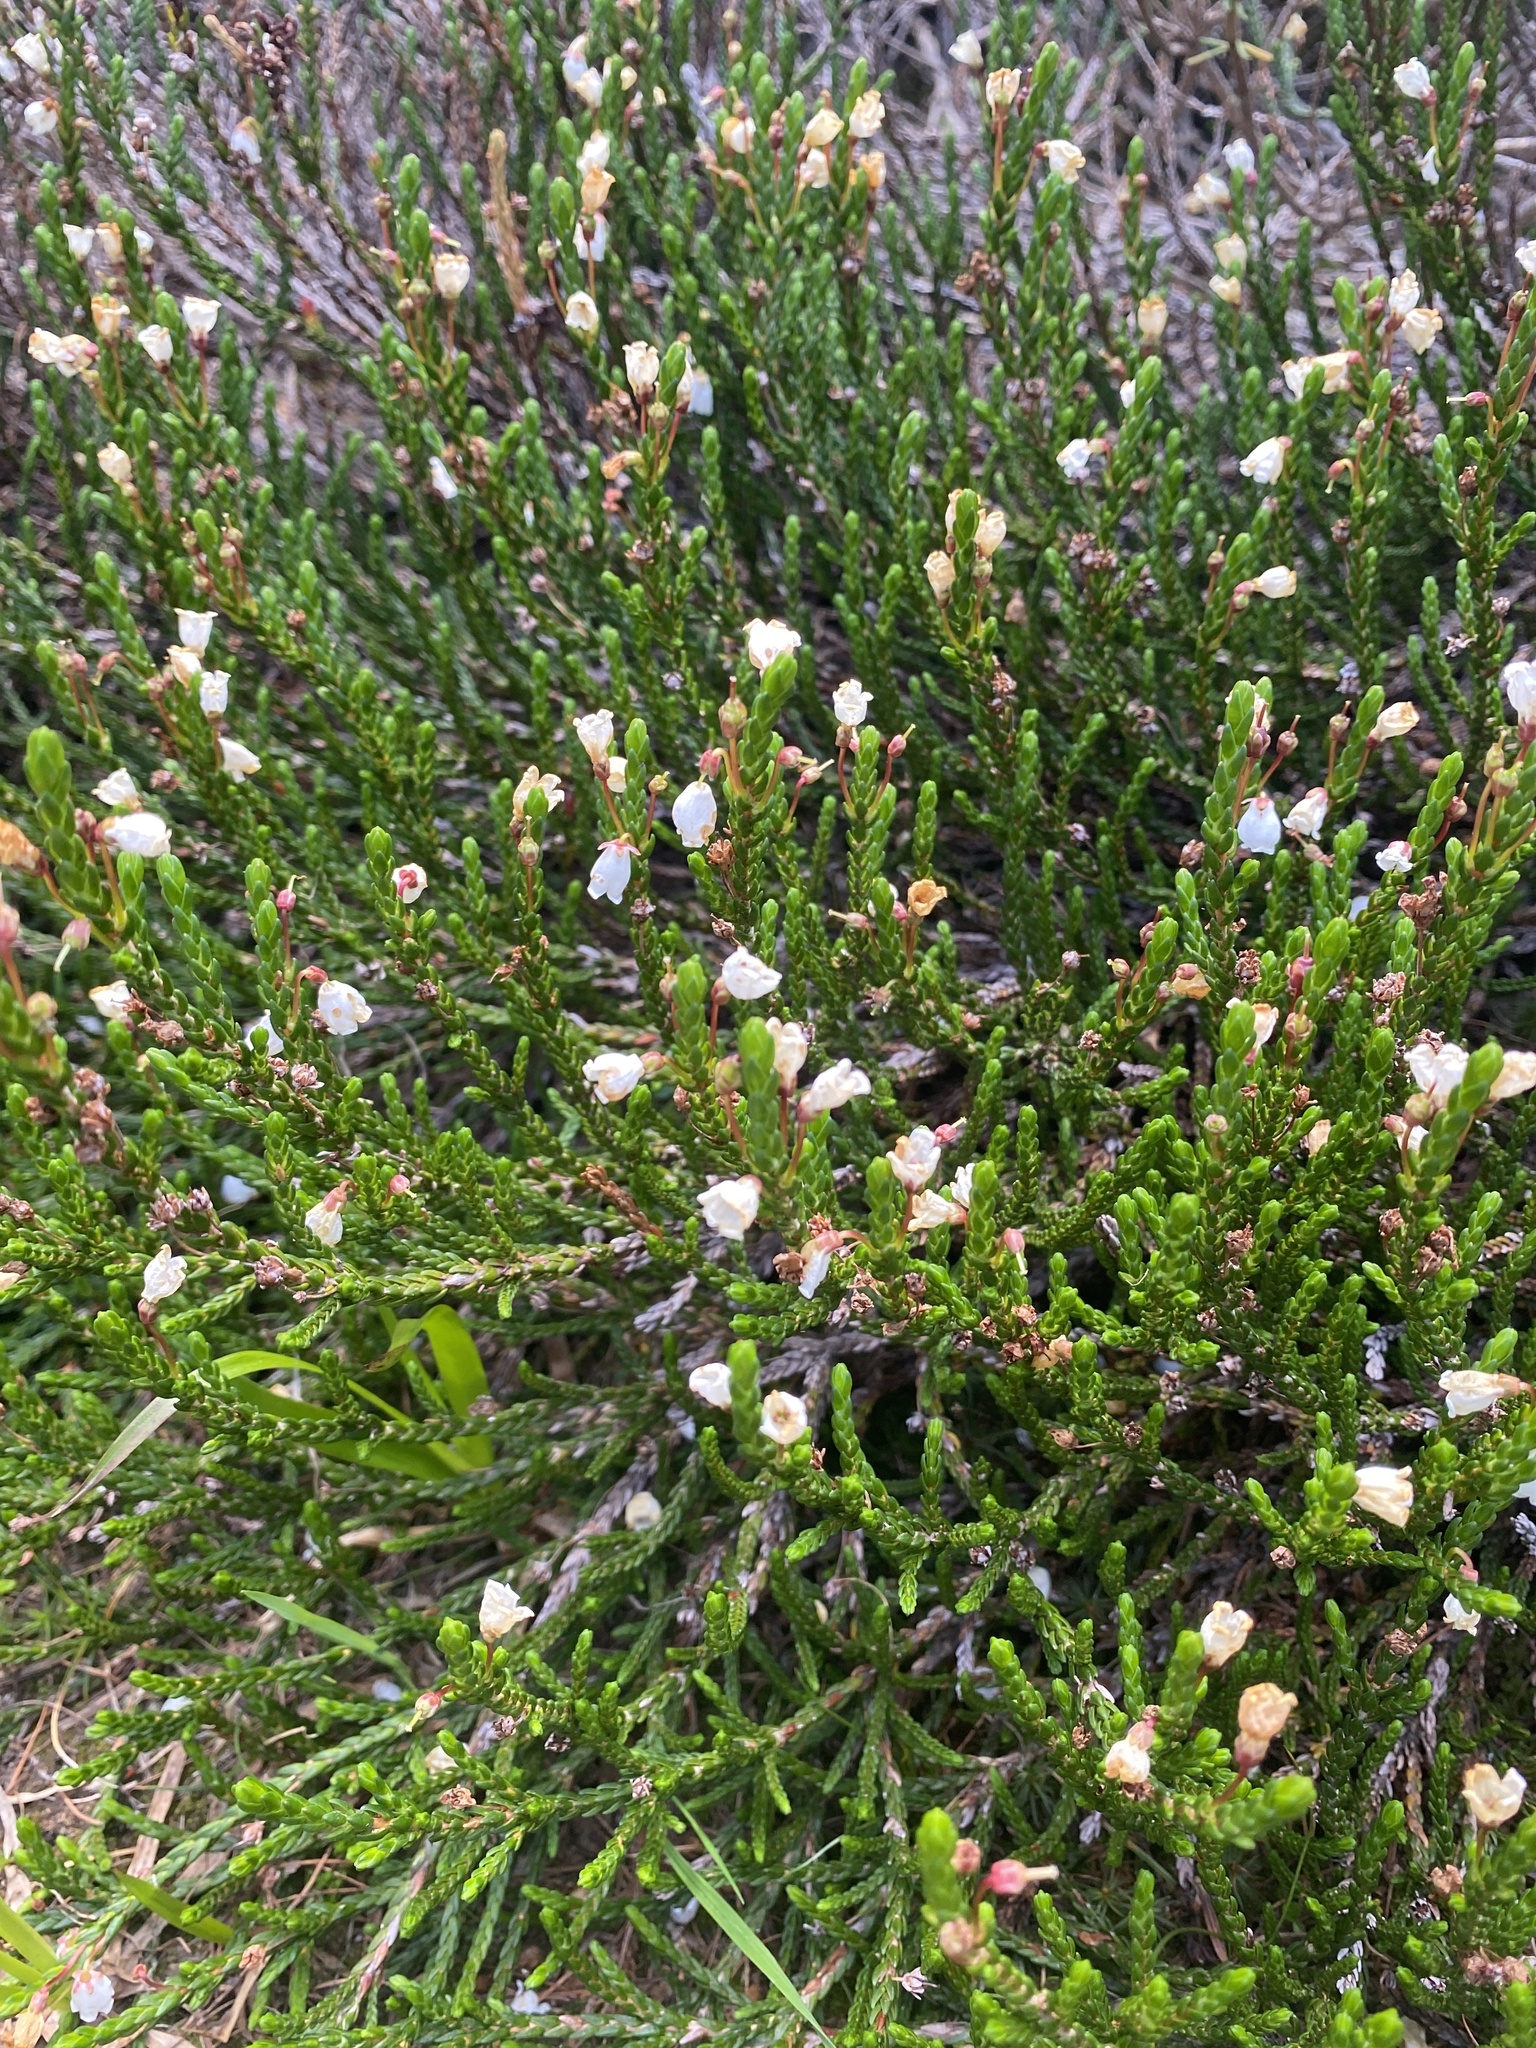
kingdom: Plantae
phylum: Tracheophyta
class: Magnoliopsida
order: Ericales
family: Ericaceae
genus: Cassiope
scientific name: Cassiope mertensiana
